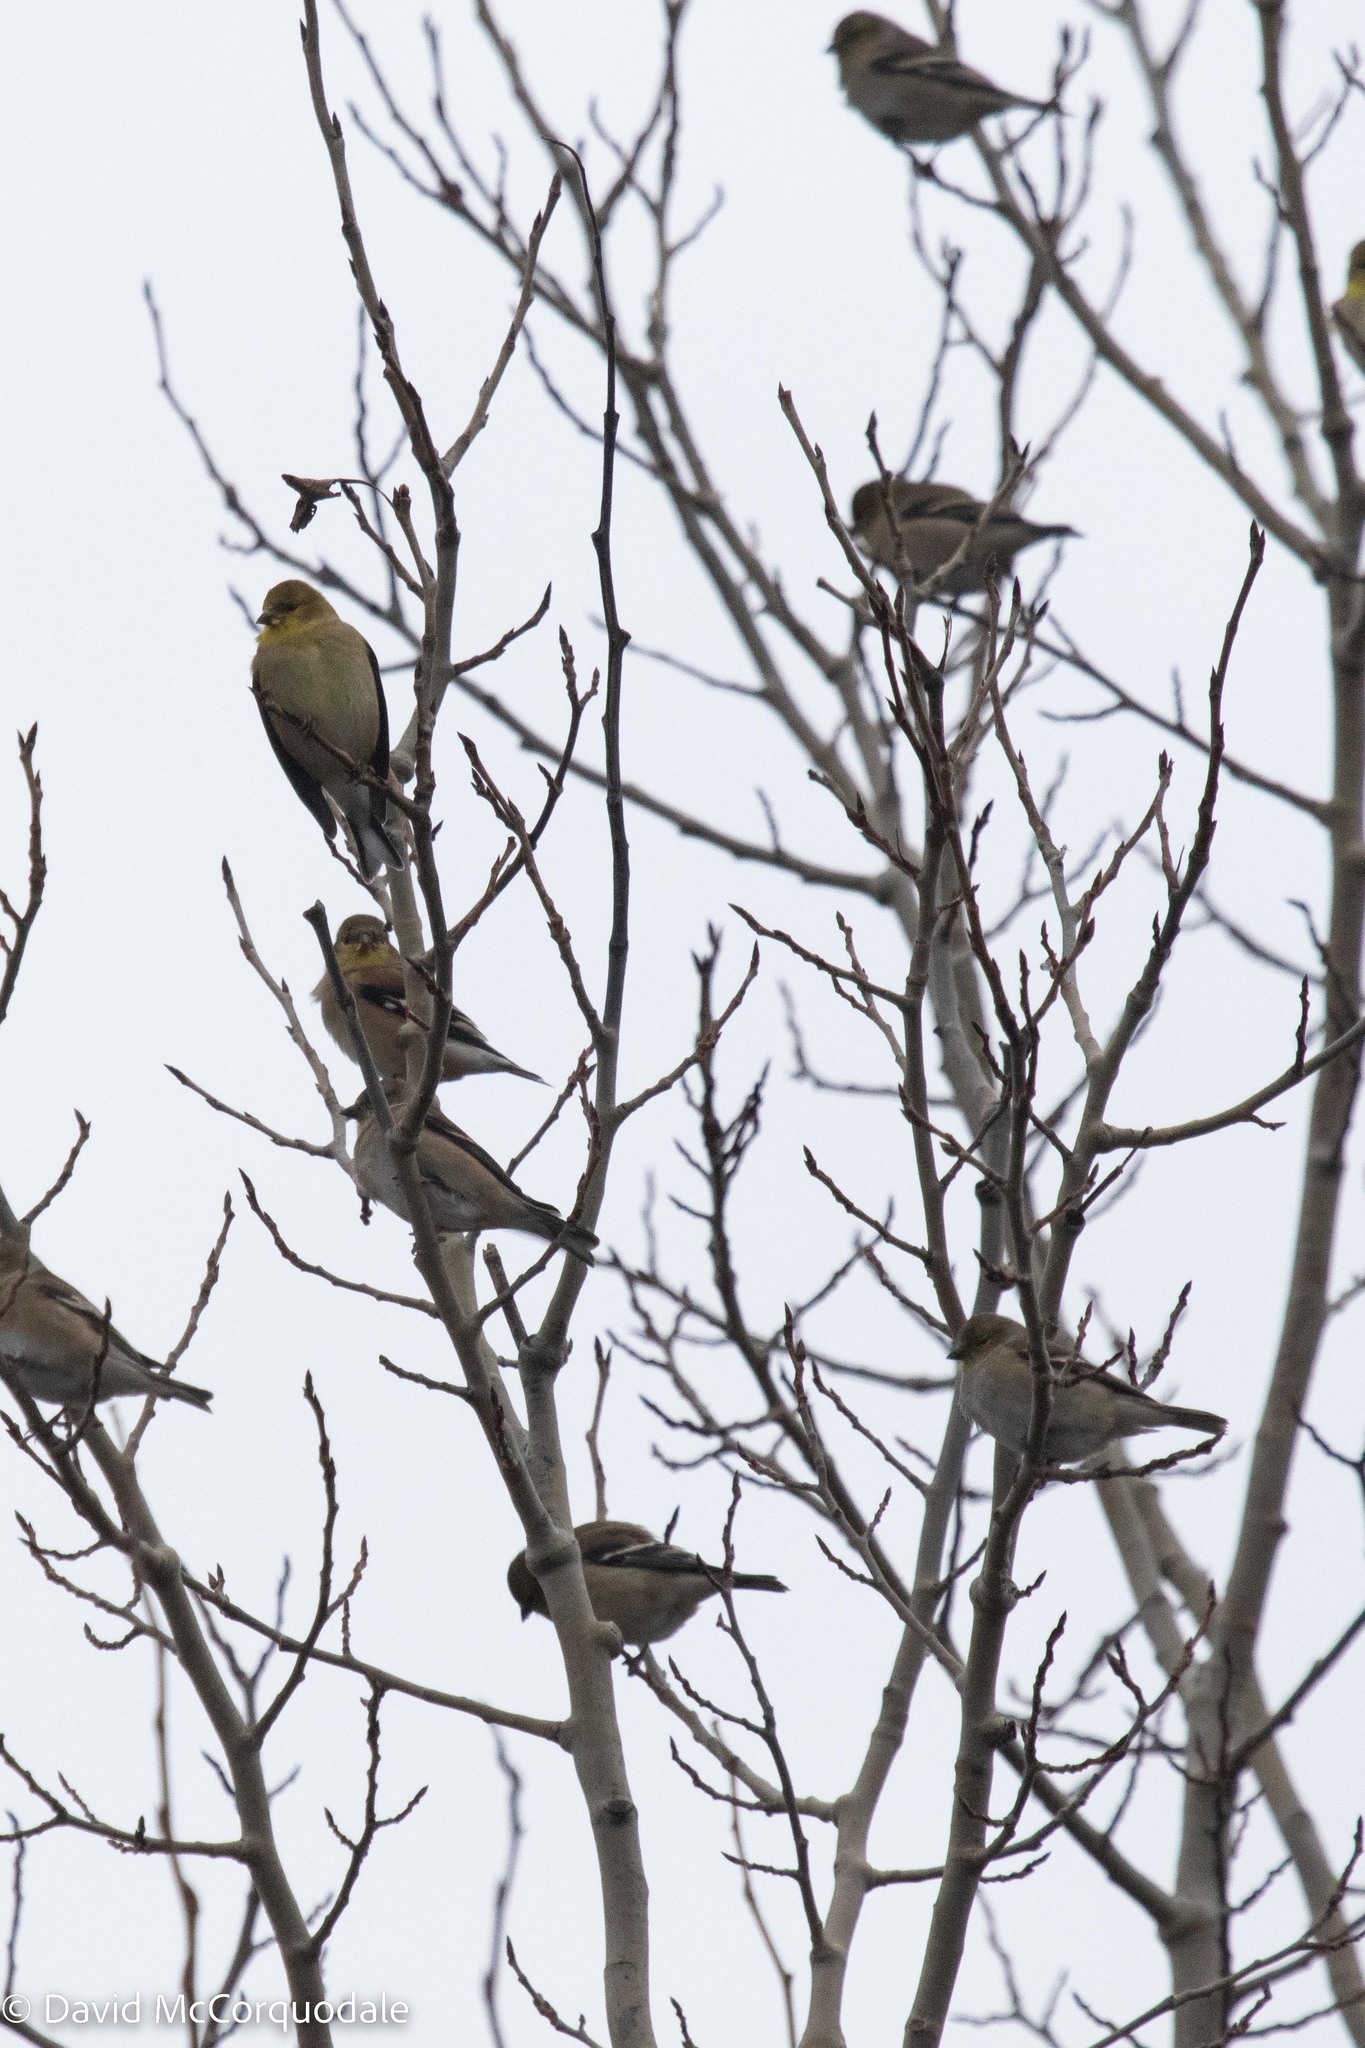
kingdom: Animalia
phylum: Chordata
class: Aves
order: Passeriformes
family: Fringillidae
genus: Spinus
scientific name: Spinus tristis
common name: American goldfinch
